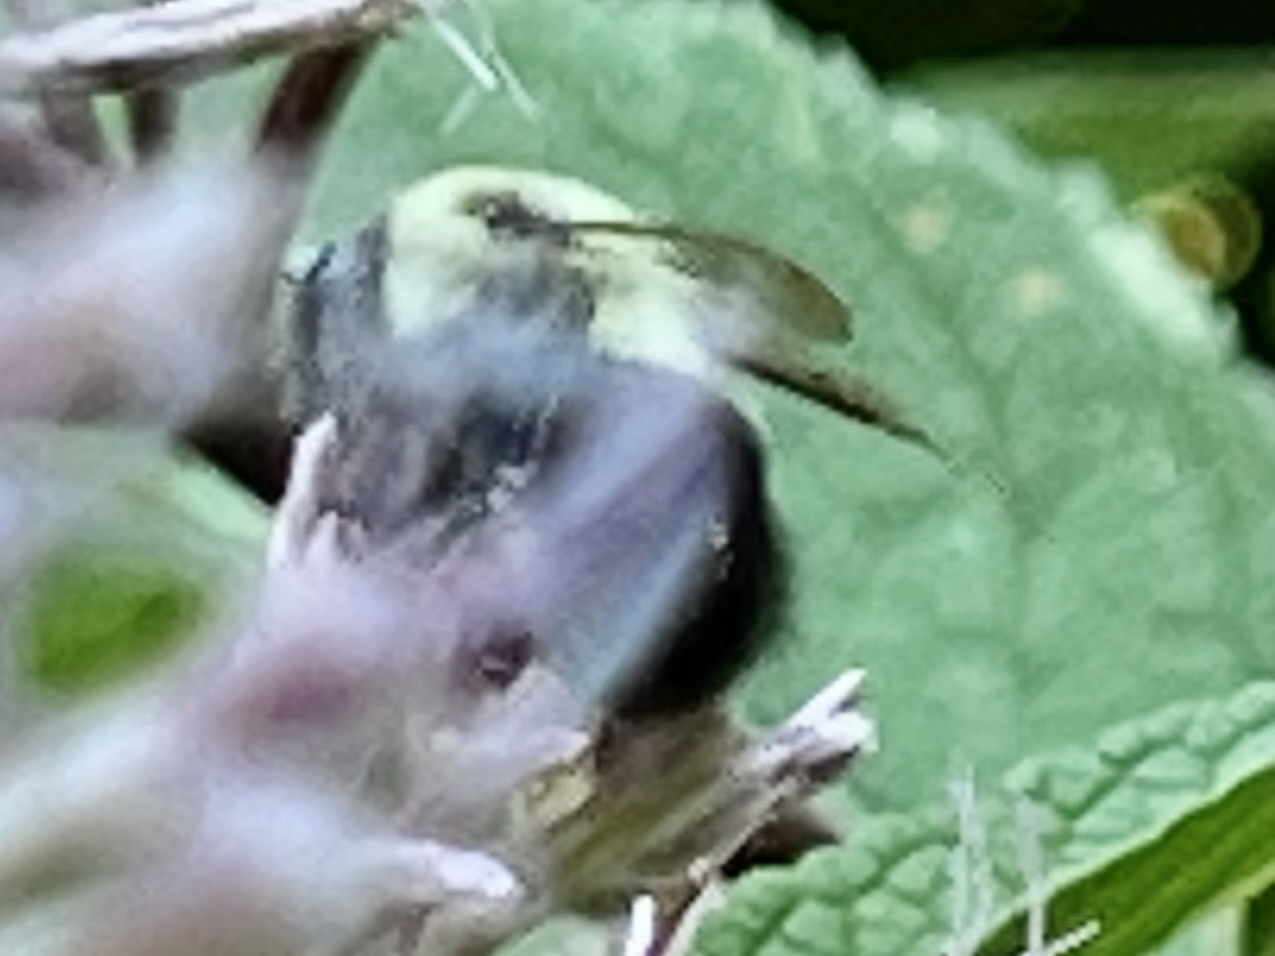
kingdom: Animalia
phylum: Arthropoda
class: Insecta
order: Hymenoptera
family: Apidae
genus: Bombus
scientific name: Bombus impatiens
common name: Common eastern bumble bee
